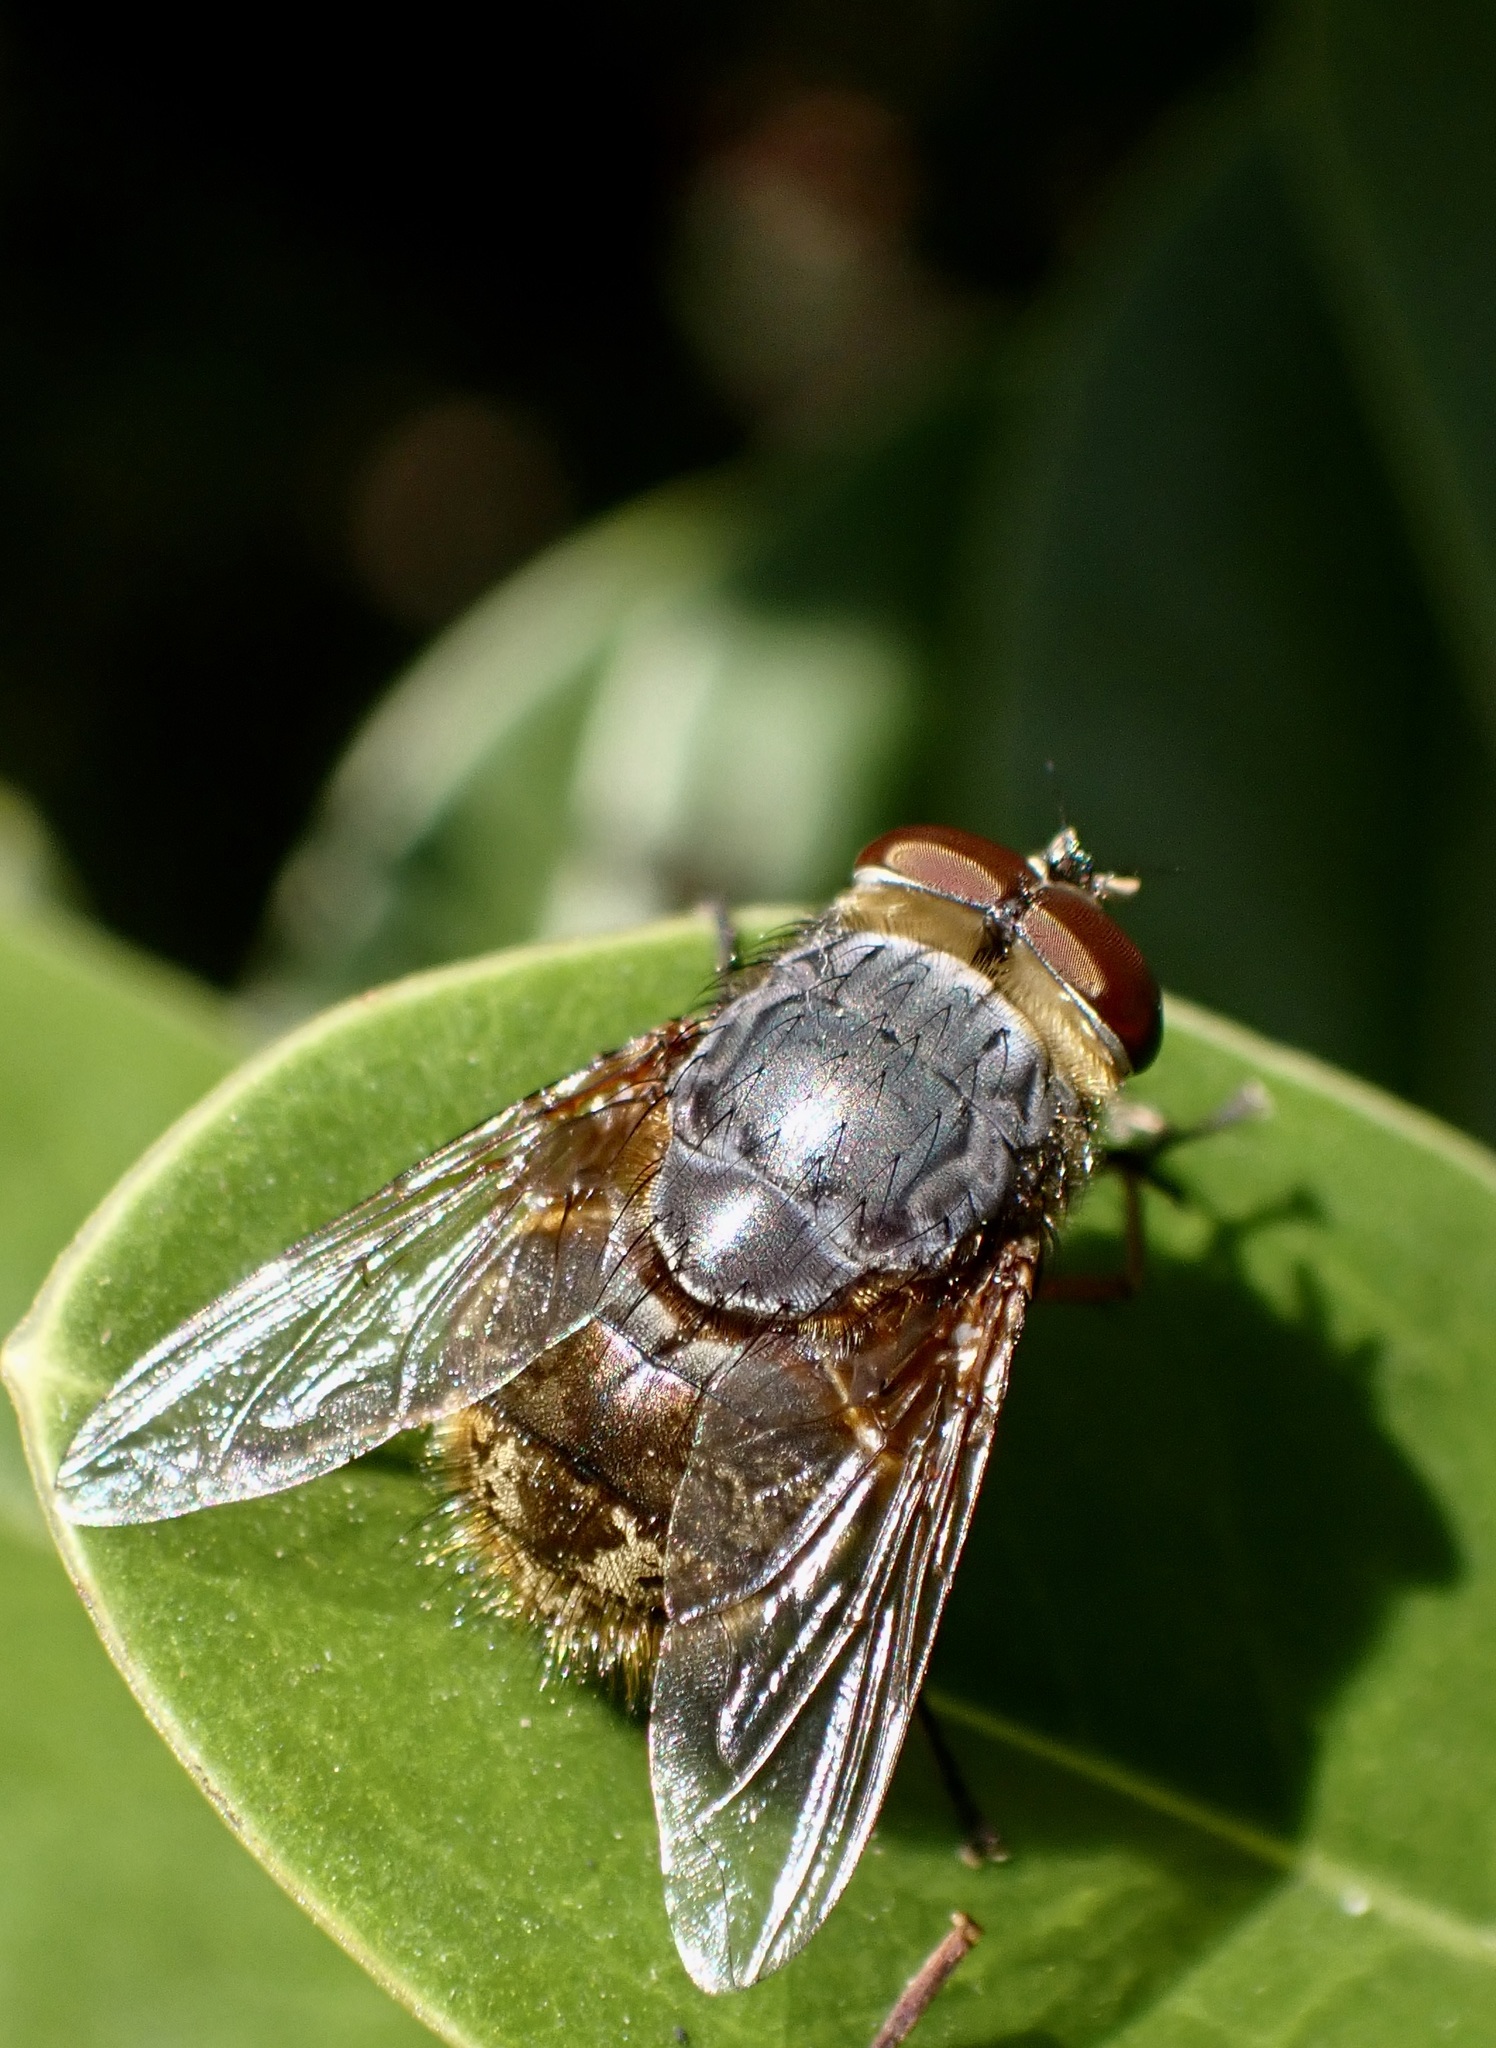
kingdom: Animalia
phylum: Arthropoda
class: Insecta
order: Diptera
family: Calliphoridae
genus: Calliphora
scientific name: Calliphora stygia
